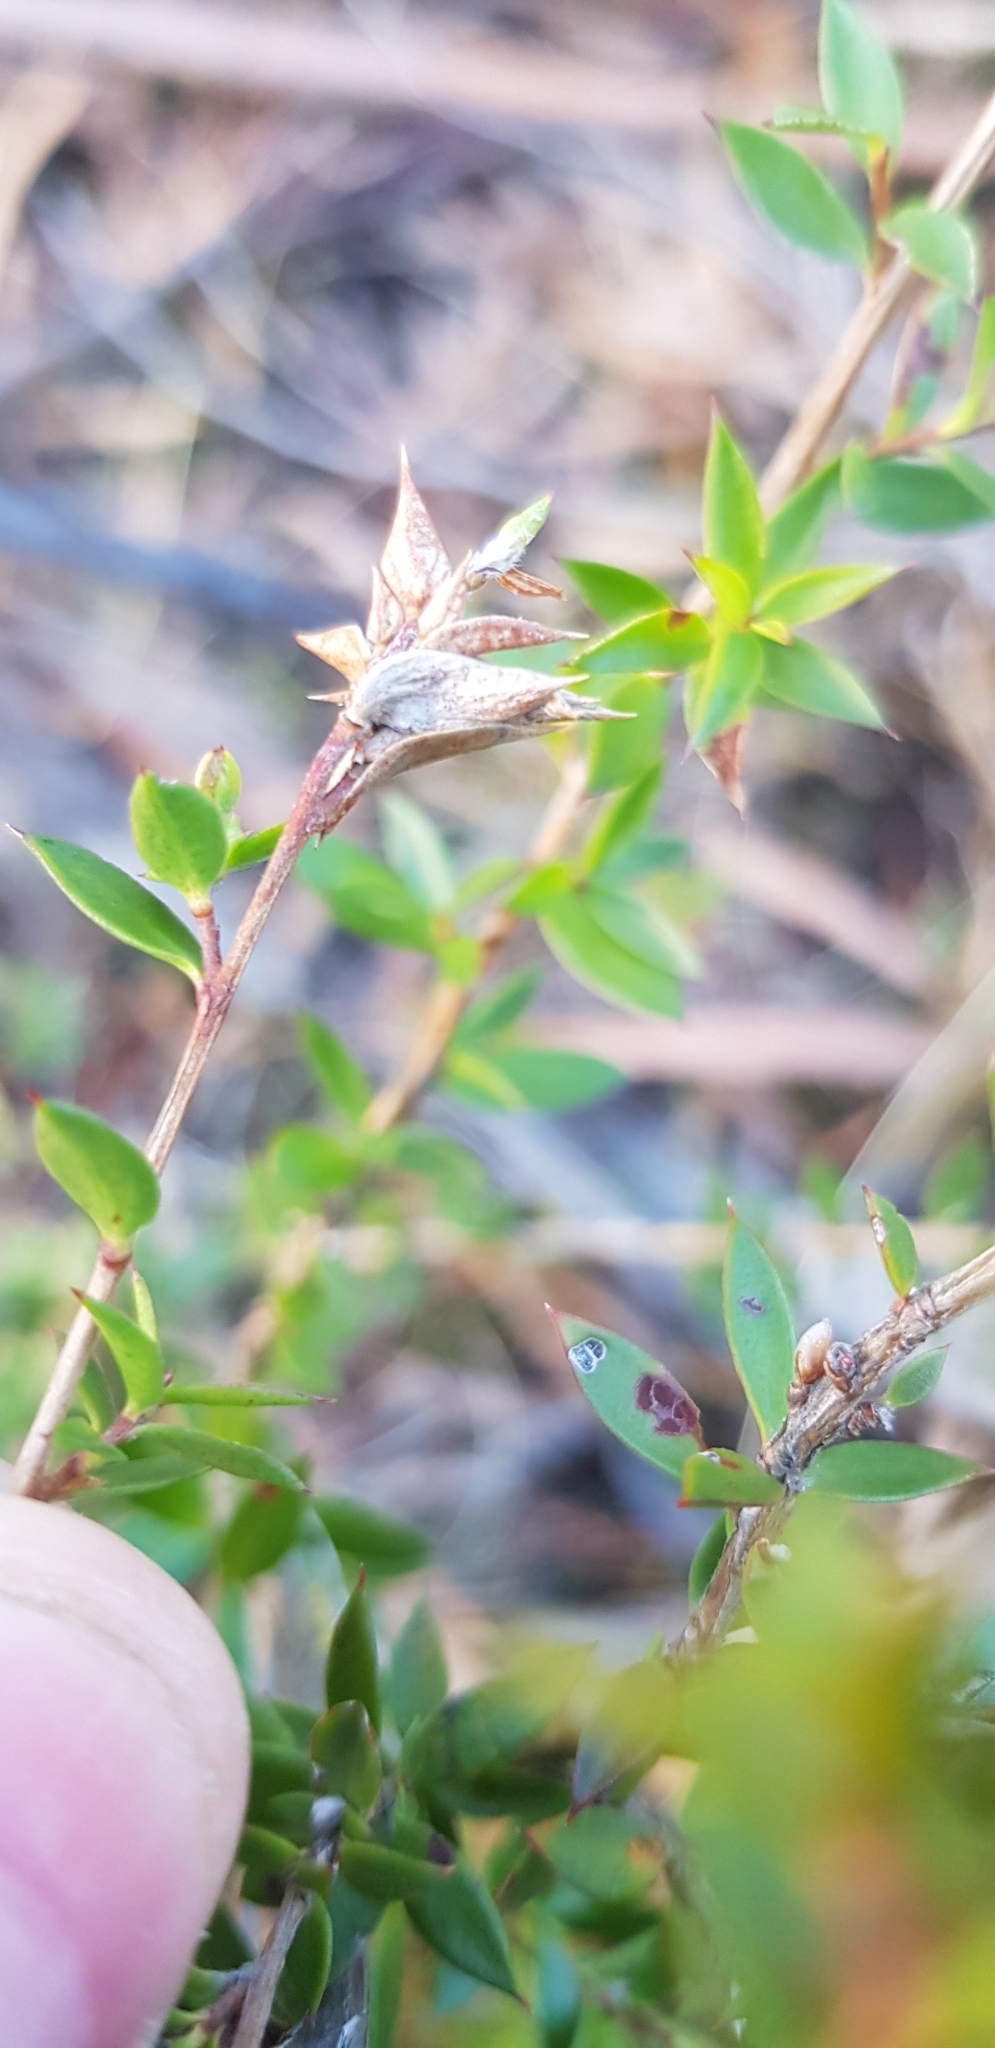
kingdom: Plantae
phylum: Tracheophyta
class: Magnoliopsida
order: Myrtales
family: Myrtaceae
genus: Leptospermum
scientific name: Leptospermum scoparium
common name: Broom tea-tree
